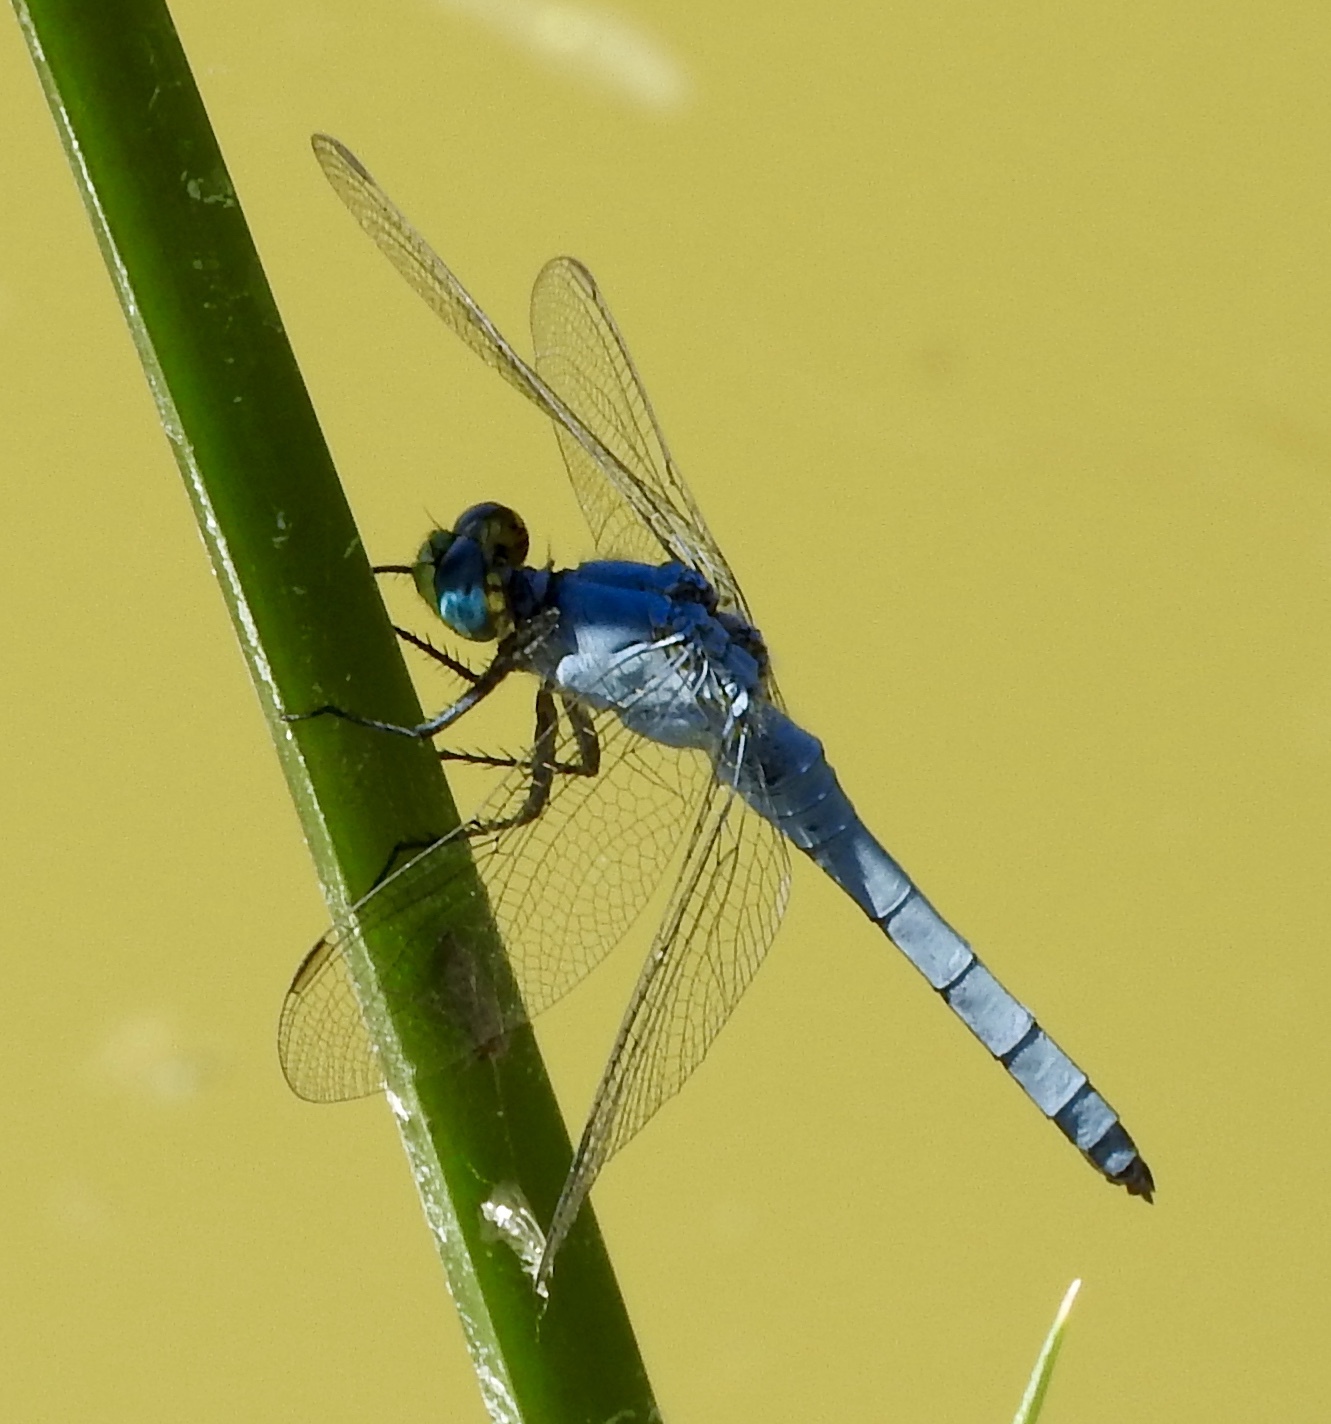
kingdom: Animalia
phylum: Arthropoda
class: Insecta
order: Odonata
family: Libellulidae
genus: Erythemis
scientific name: Erythemis collocata
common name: Western pondhawk
